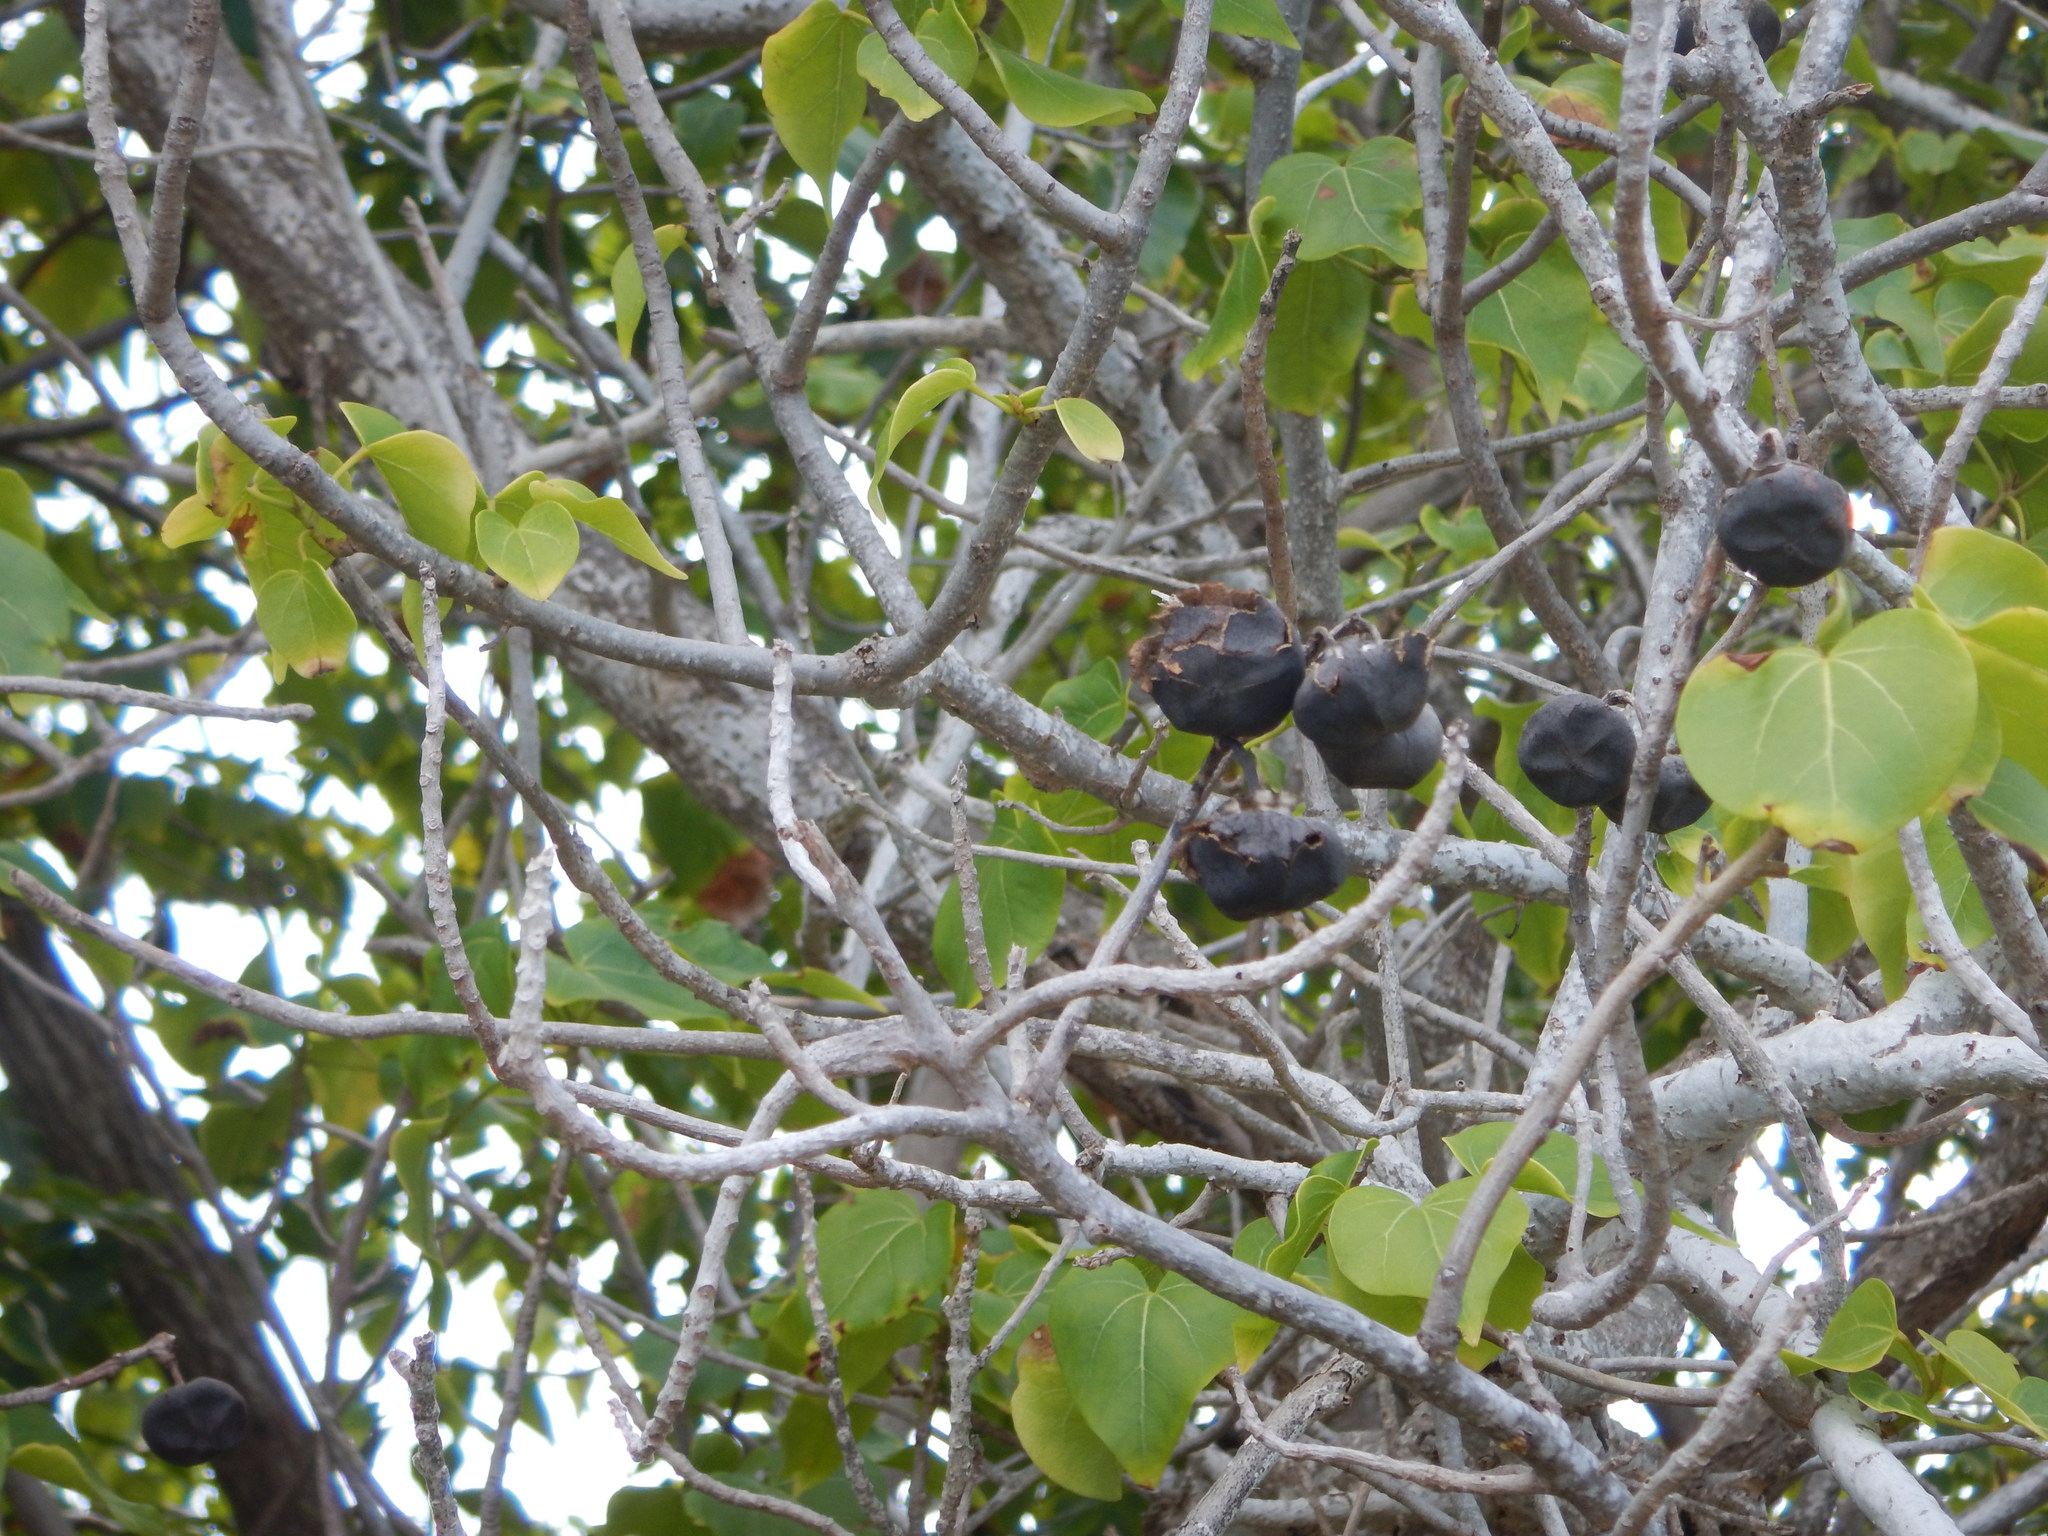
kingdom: Plantae
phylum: Tracheophyta
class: Magnoliopsida
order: Malvales
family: Malvaceae
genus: Thespesia
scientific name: Thespesia populnea
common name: Seaside mahoe
